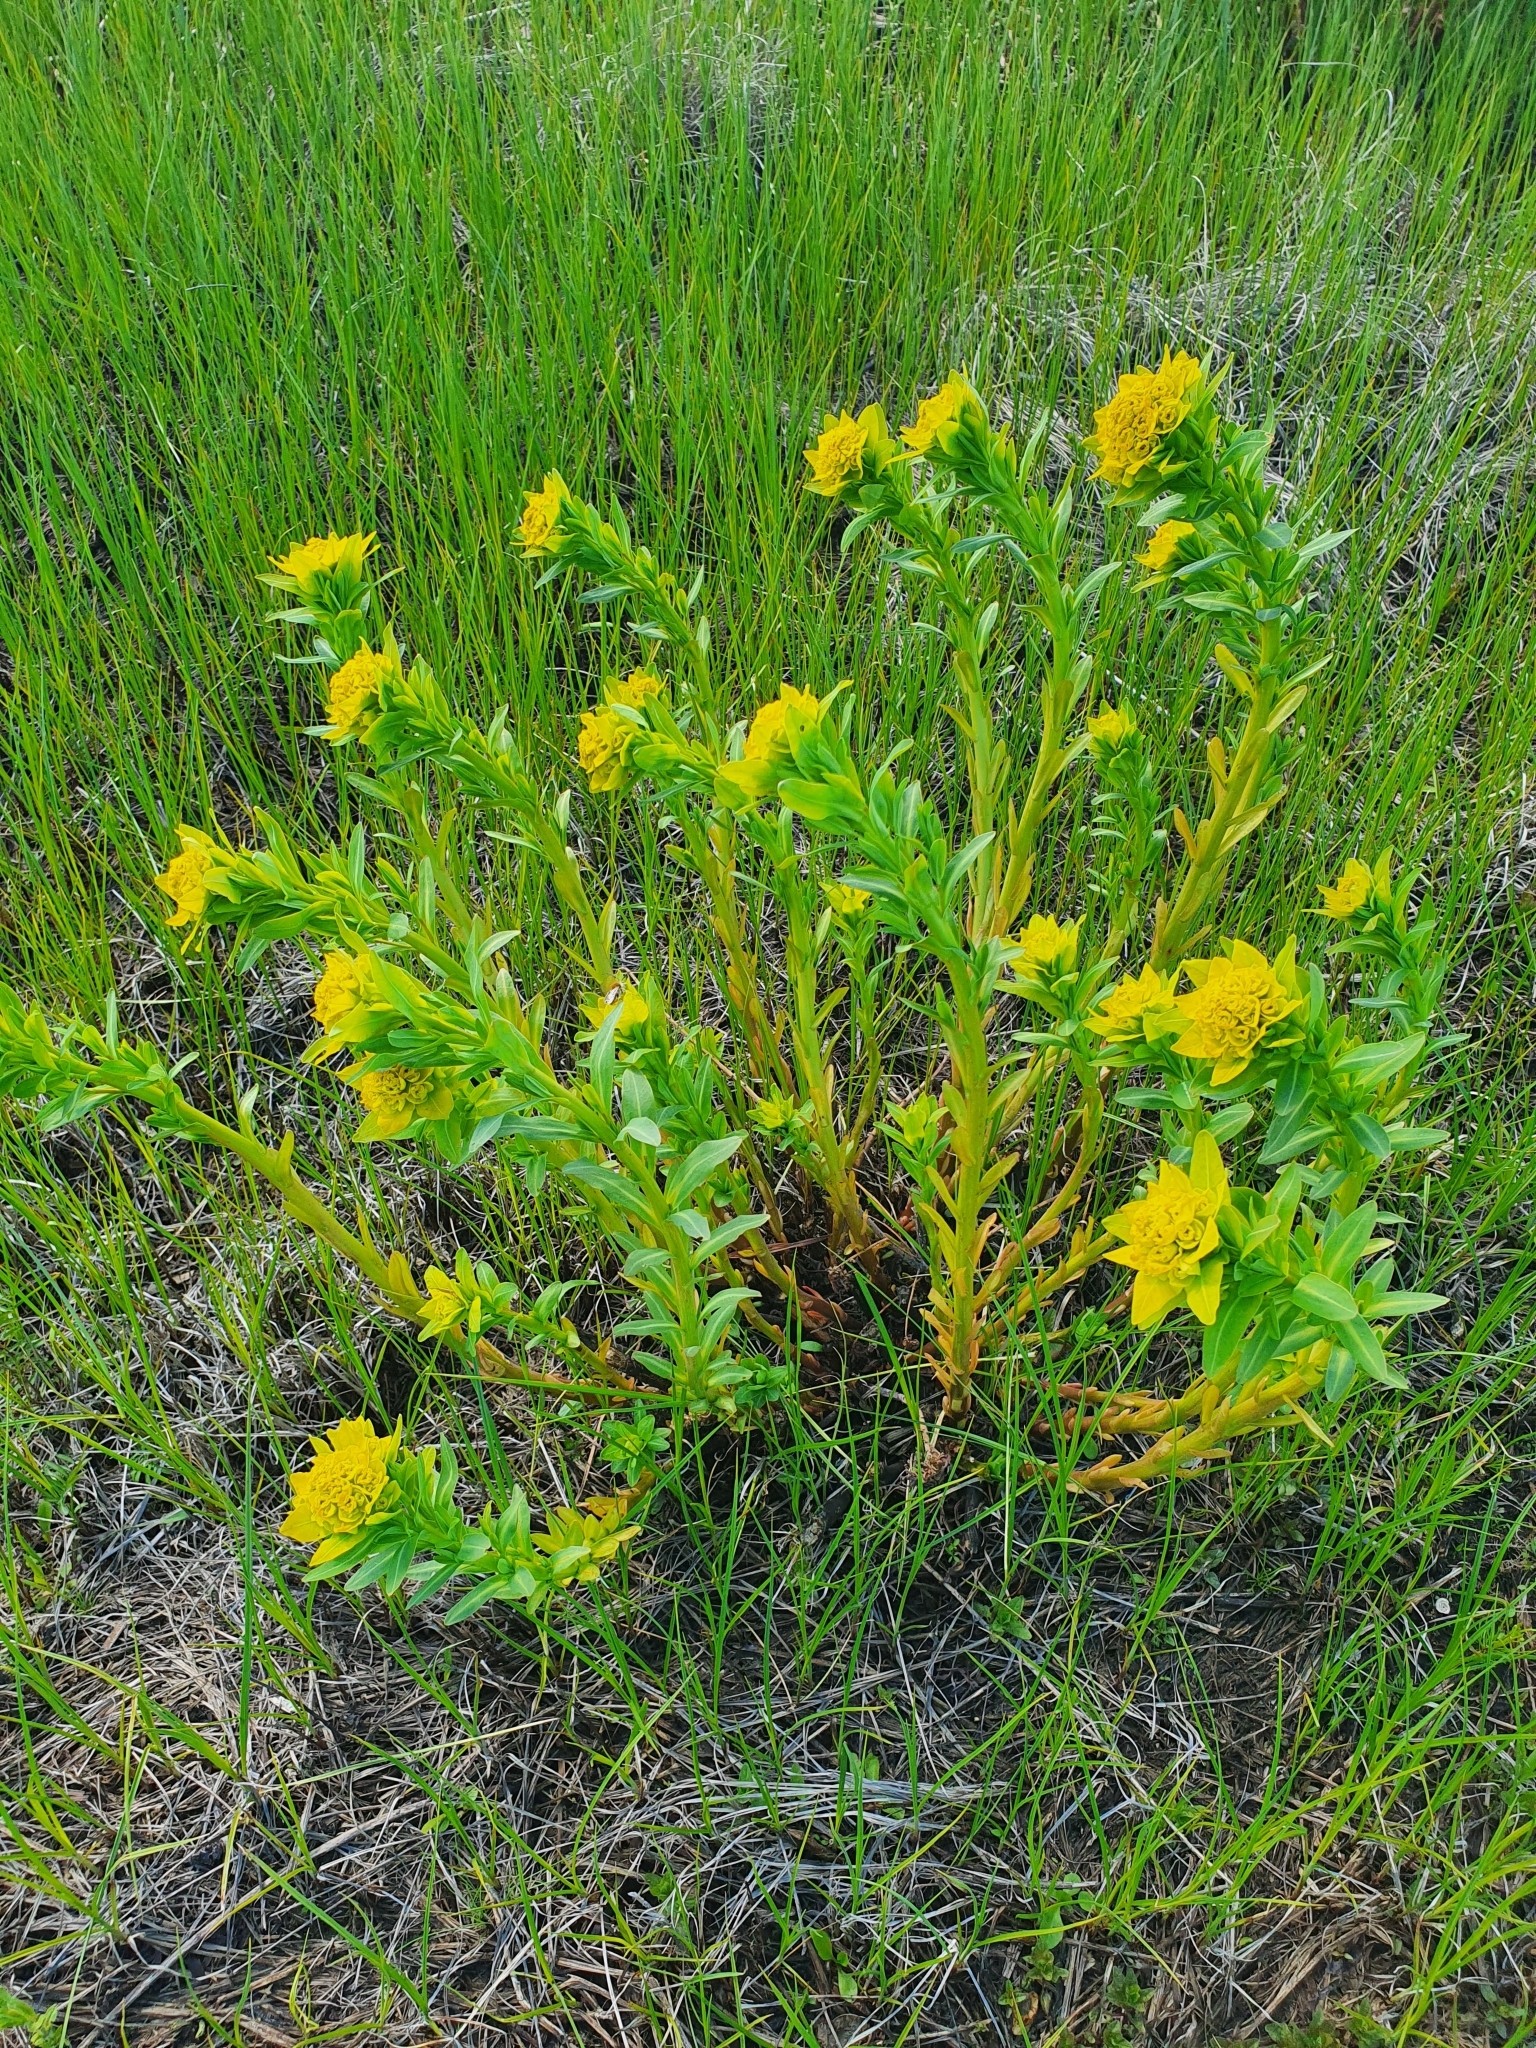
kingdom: Plantae
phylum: Tracheophyta
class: Magnoliopsida
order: Malpighiales
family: Euphorbiaceae
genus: Euphorbia
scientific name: Euphorbia palustris
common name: Marsh spurge
